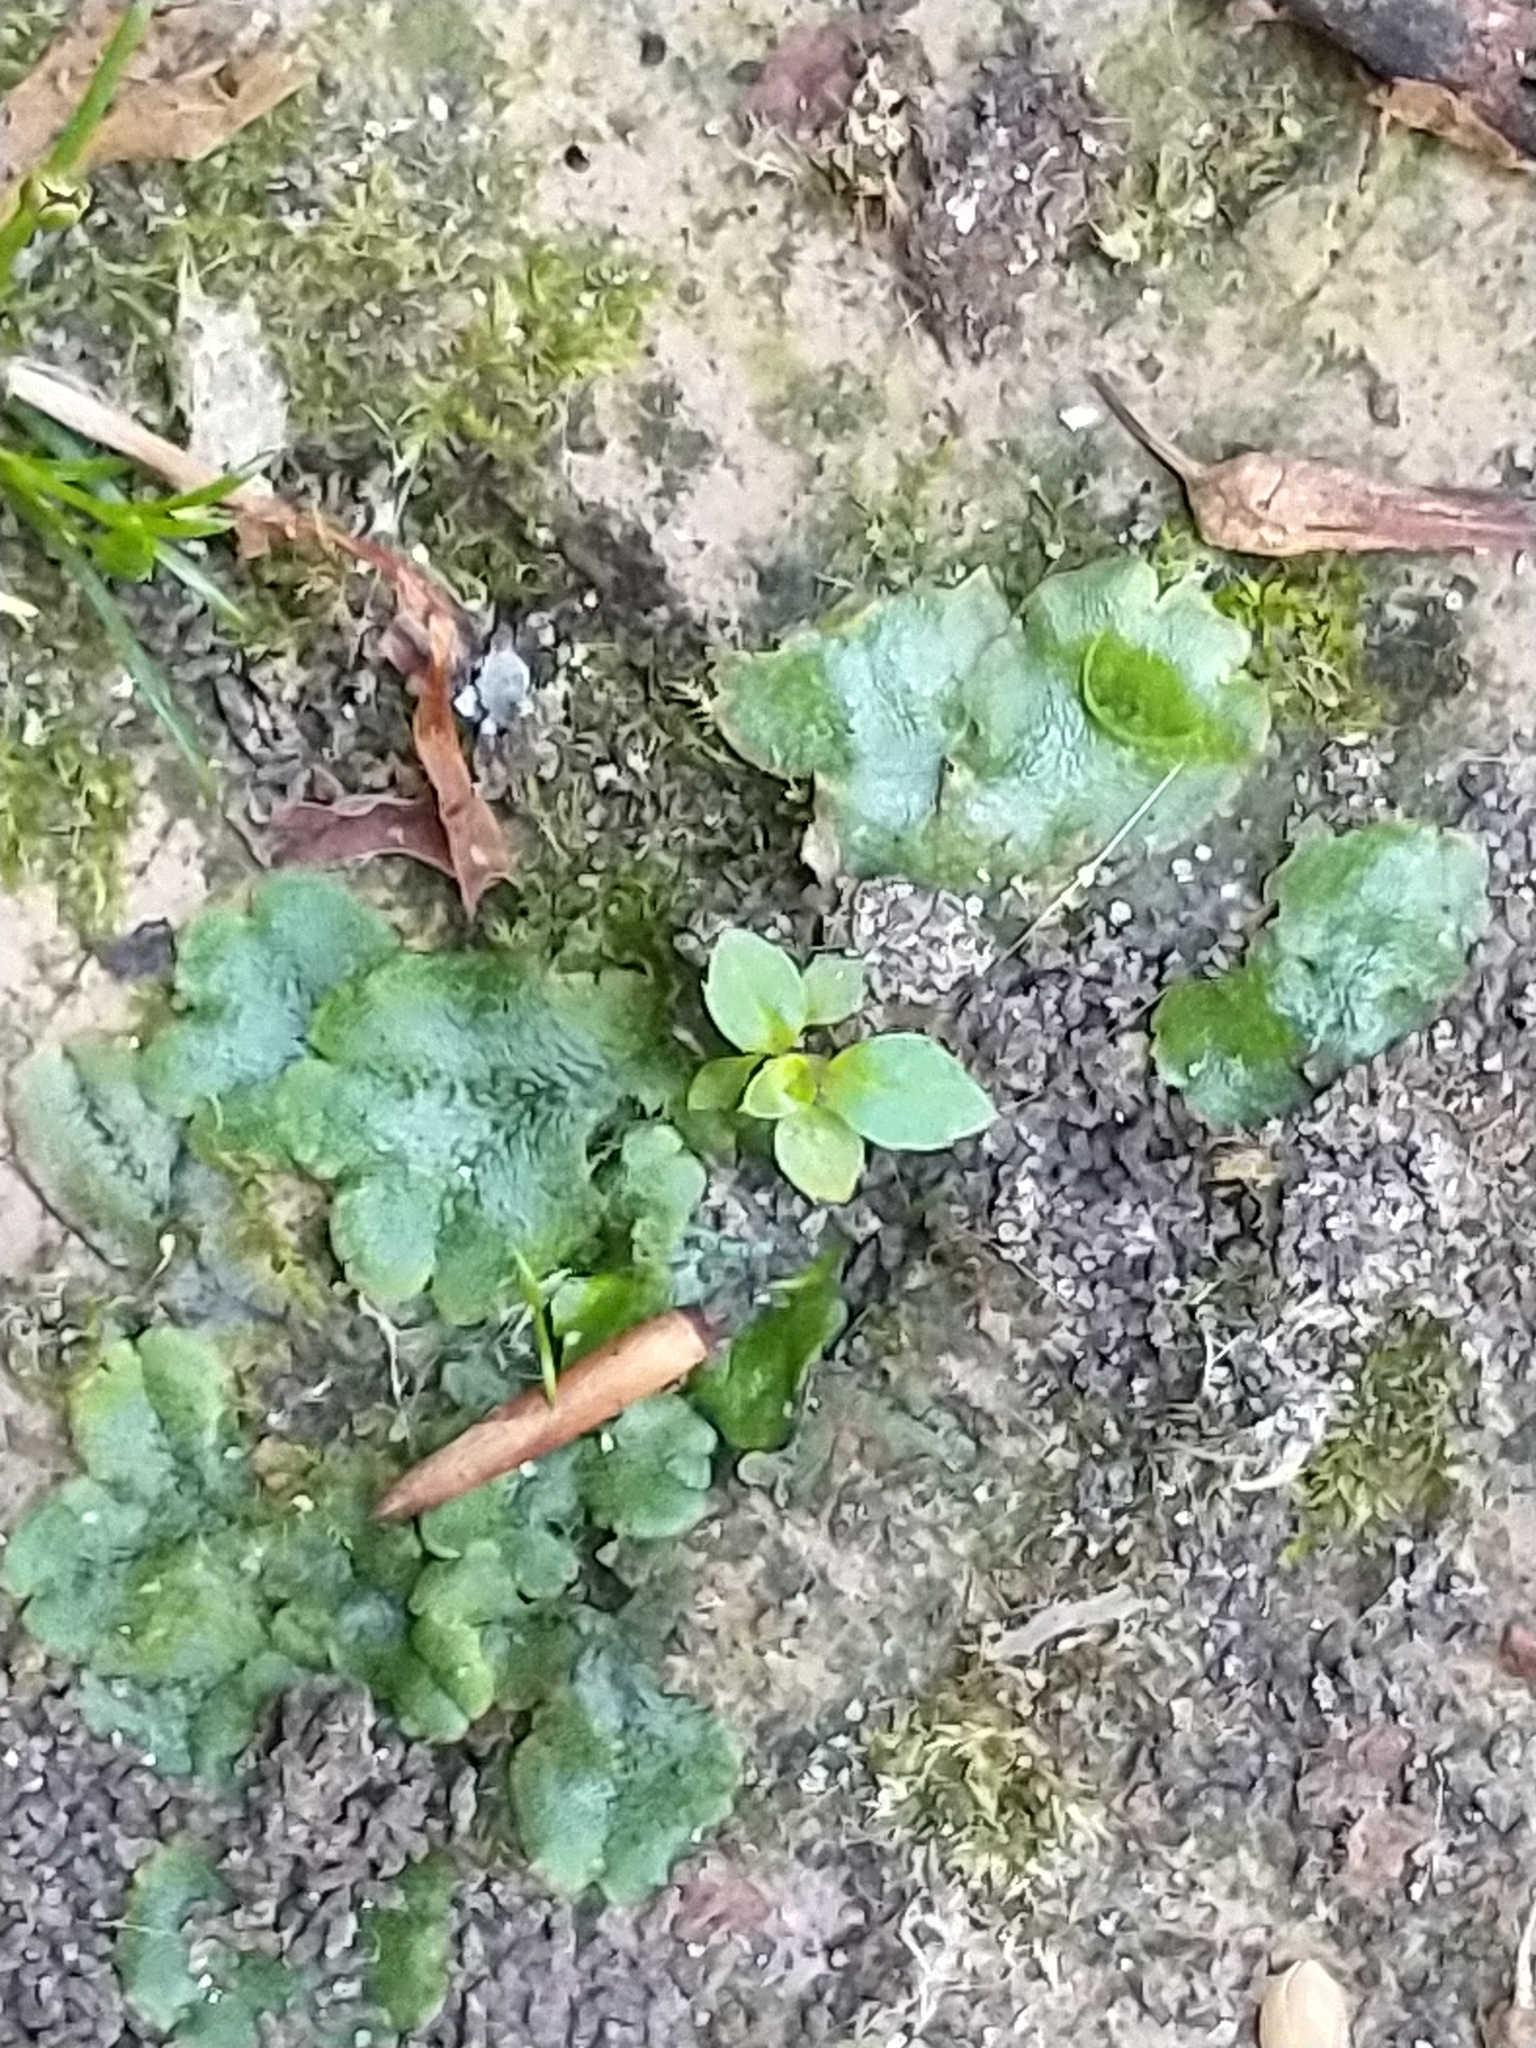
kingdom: Plantae
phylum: Marchantiophyta
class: Marchantiopsida
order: Lunulariales
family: Lunulariaceae
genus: Lunularia
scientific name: Lunularia cruciata
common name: Crescent-cup liverwort
